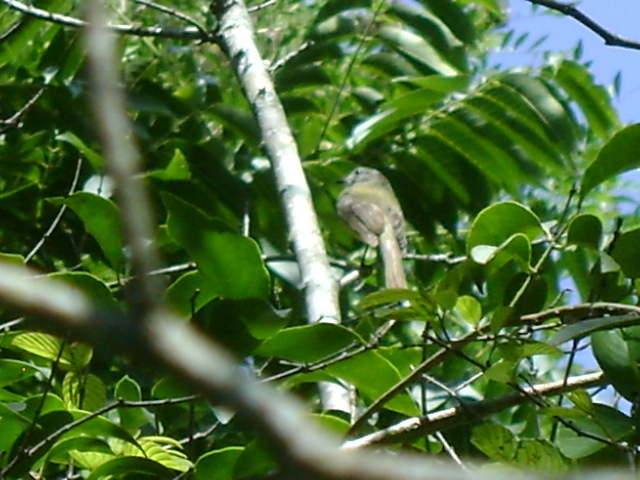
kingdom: Animalia
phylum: Chordata
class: Aves
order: Passeriformes
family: Tyrannidae
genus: Myiopagis
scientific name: Myiopagis viridicata
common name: Greenish elaenia
